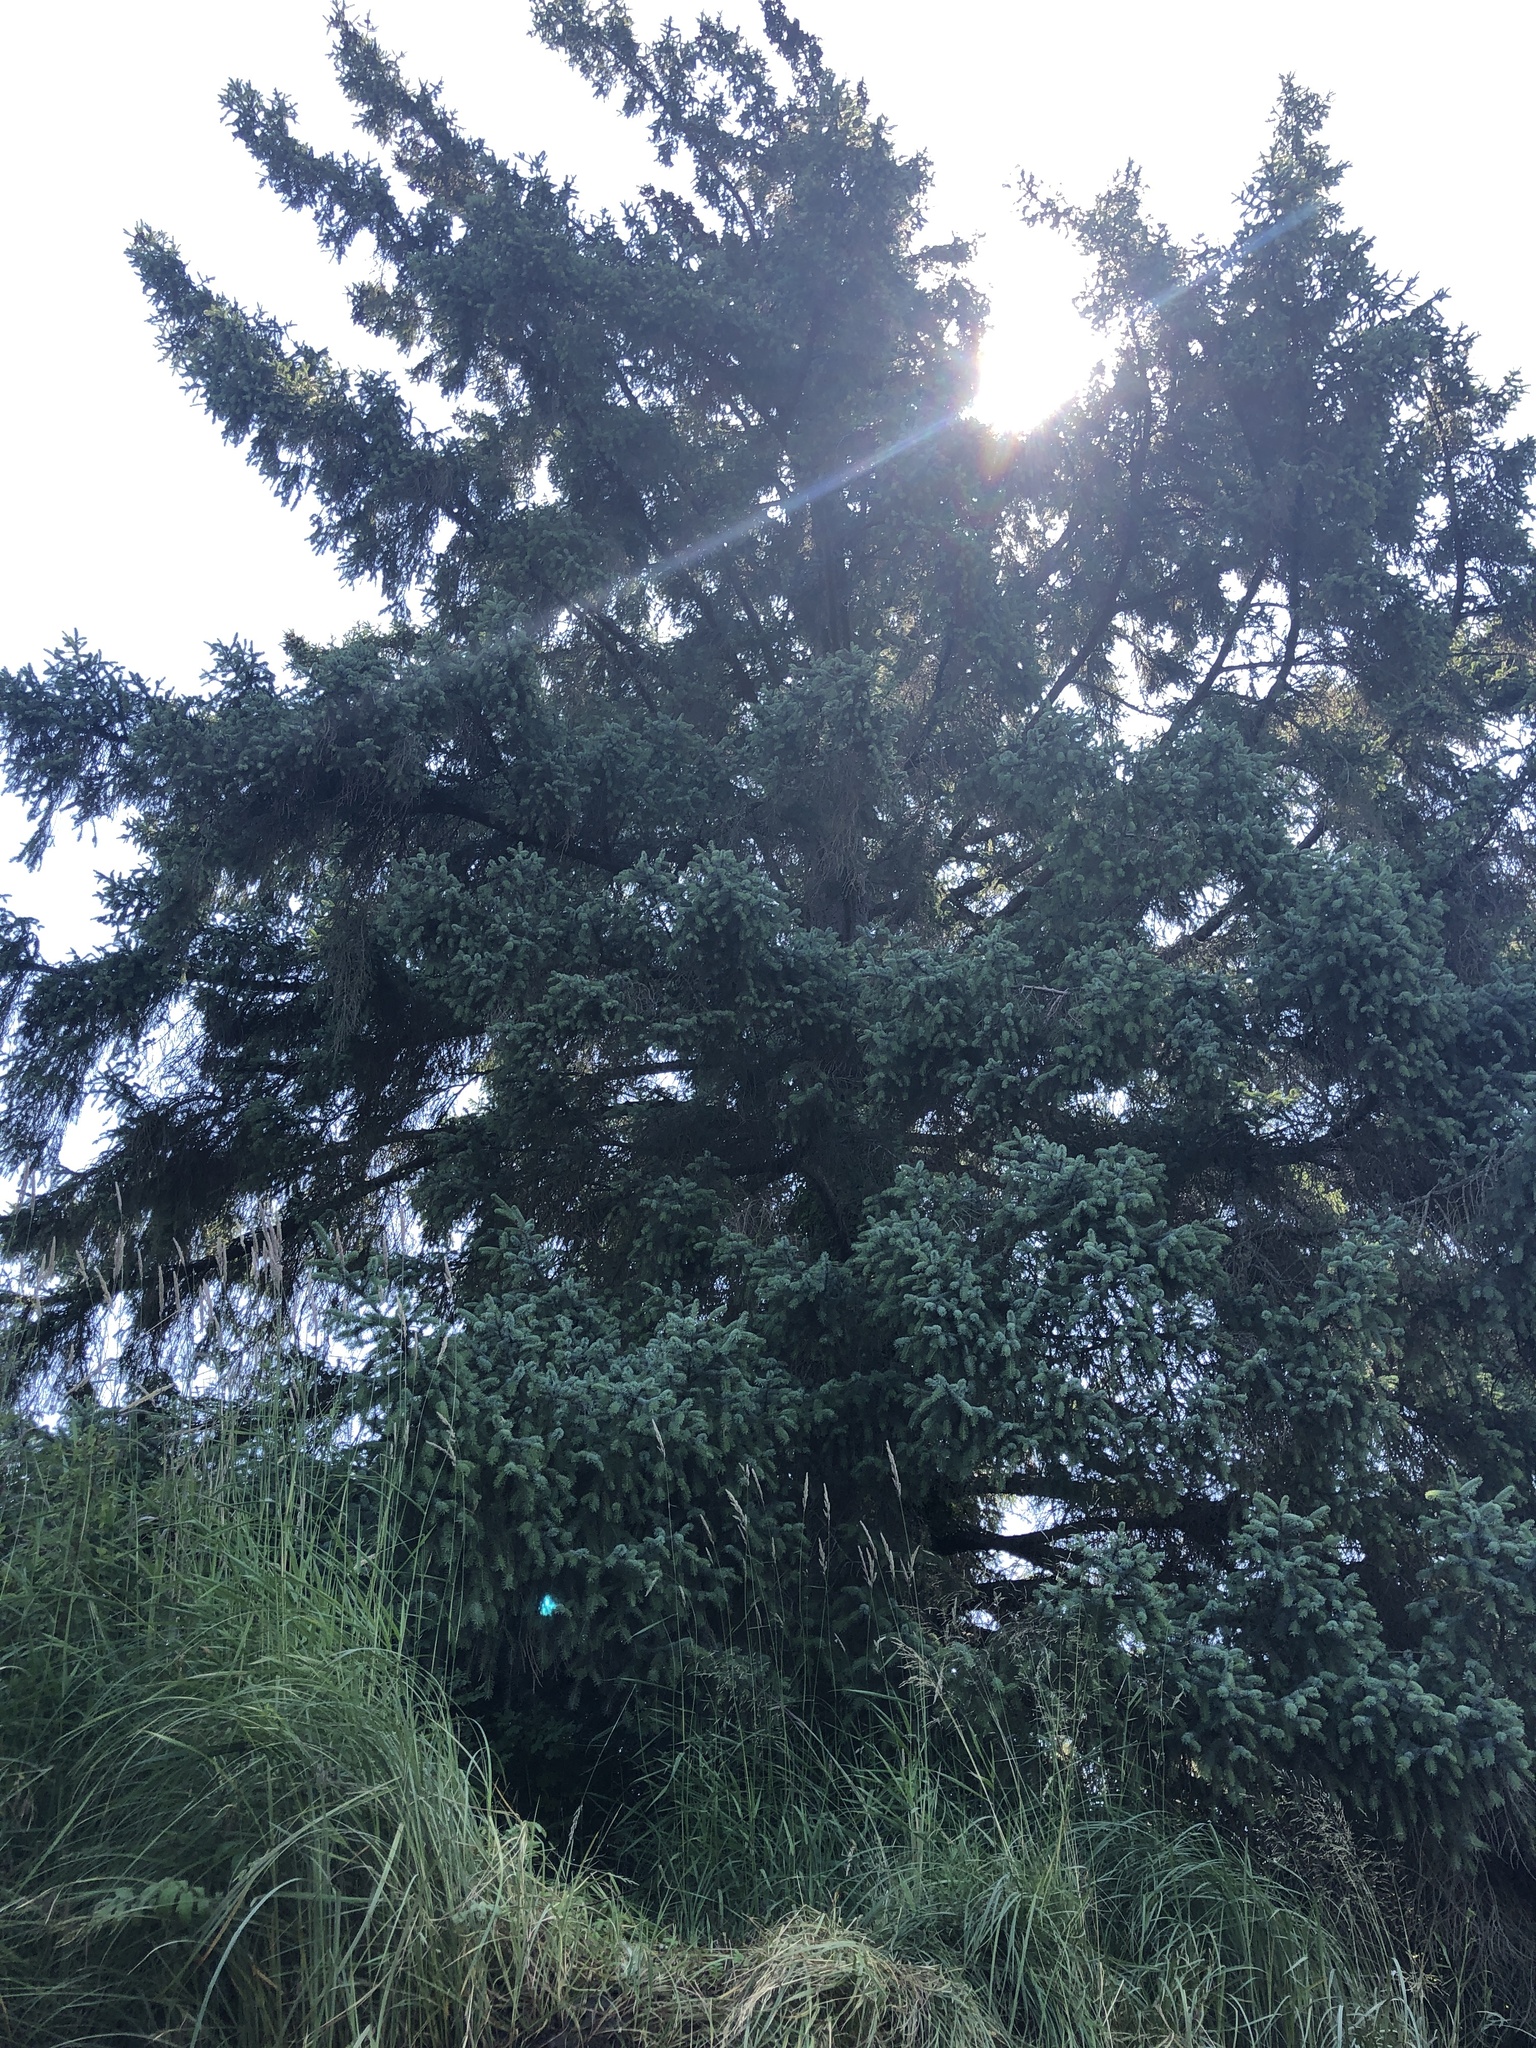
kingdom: Plantae
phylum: Tracheophyta
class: Pinopsida
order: Pinales
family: Pinaceae
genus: Picea
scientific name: Picea sitchensis
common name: Sitka spruce
